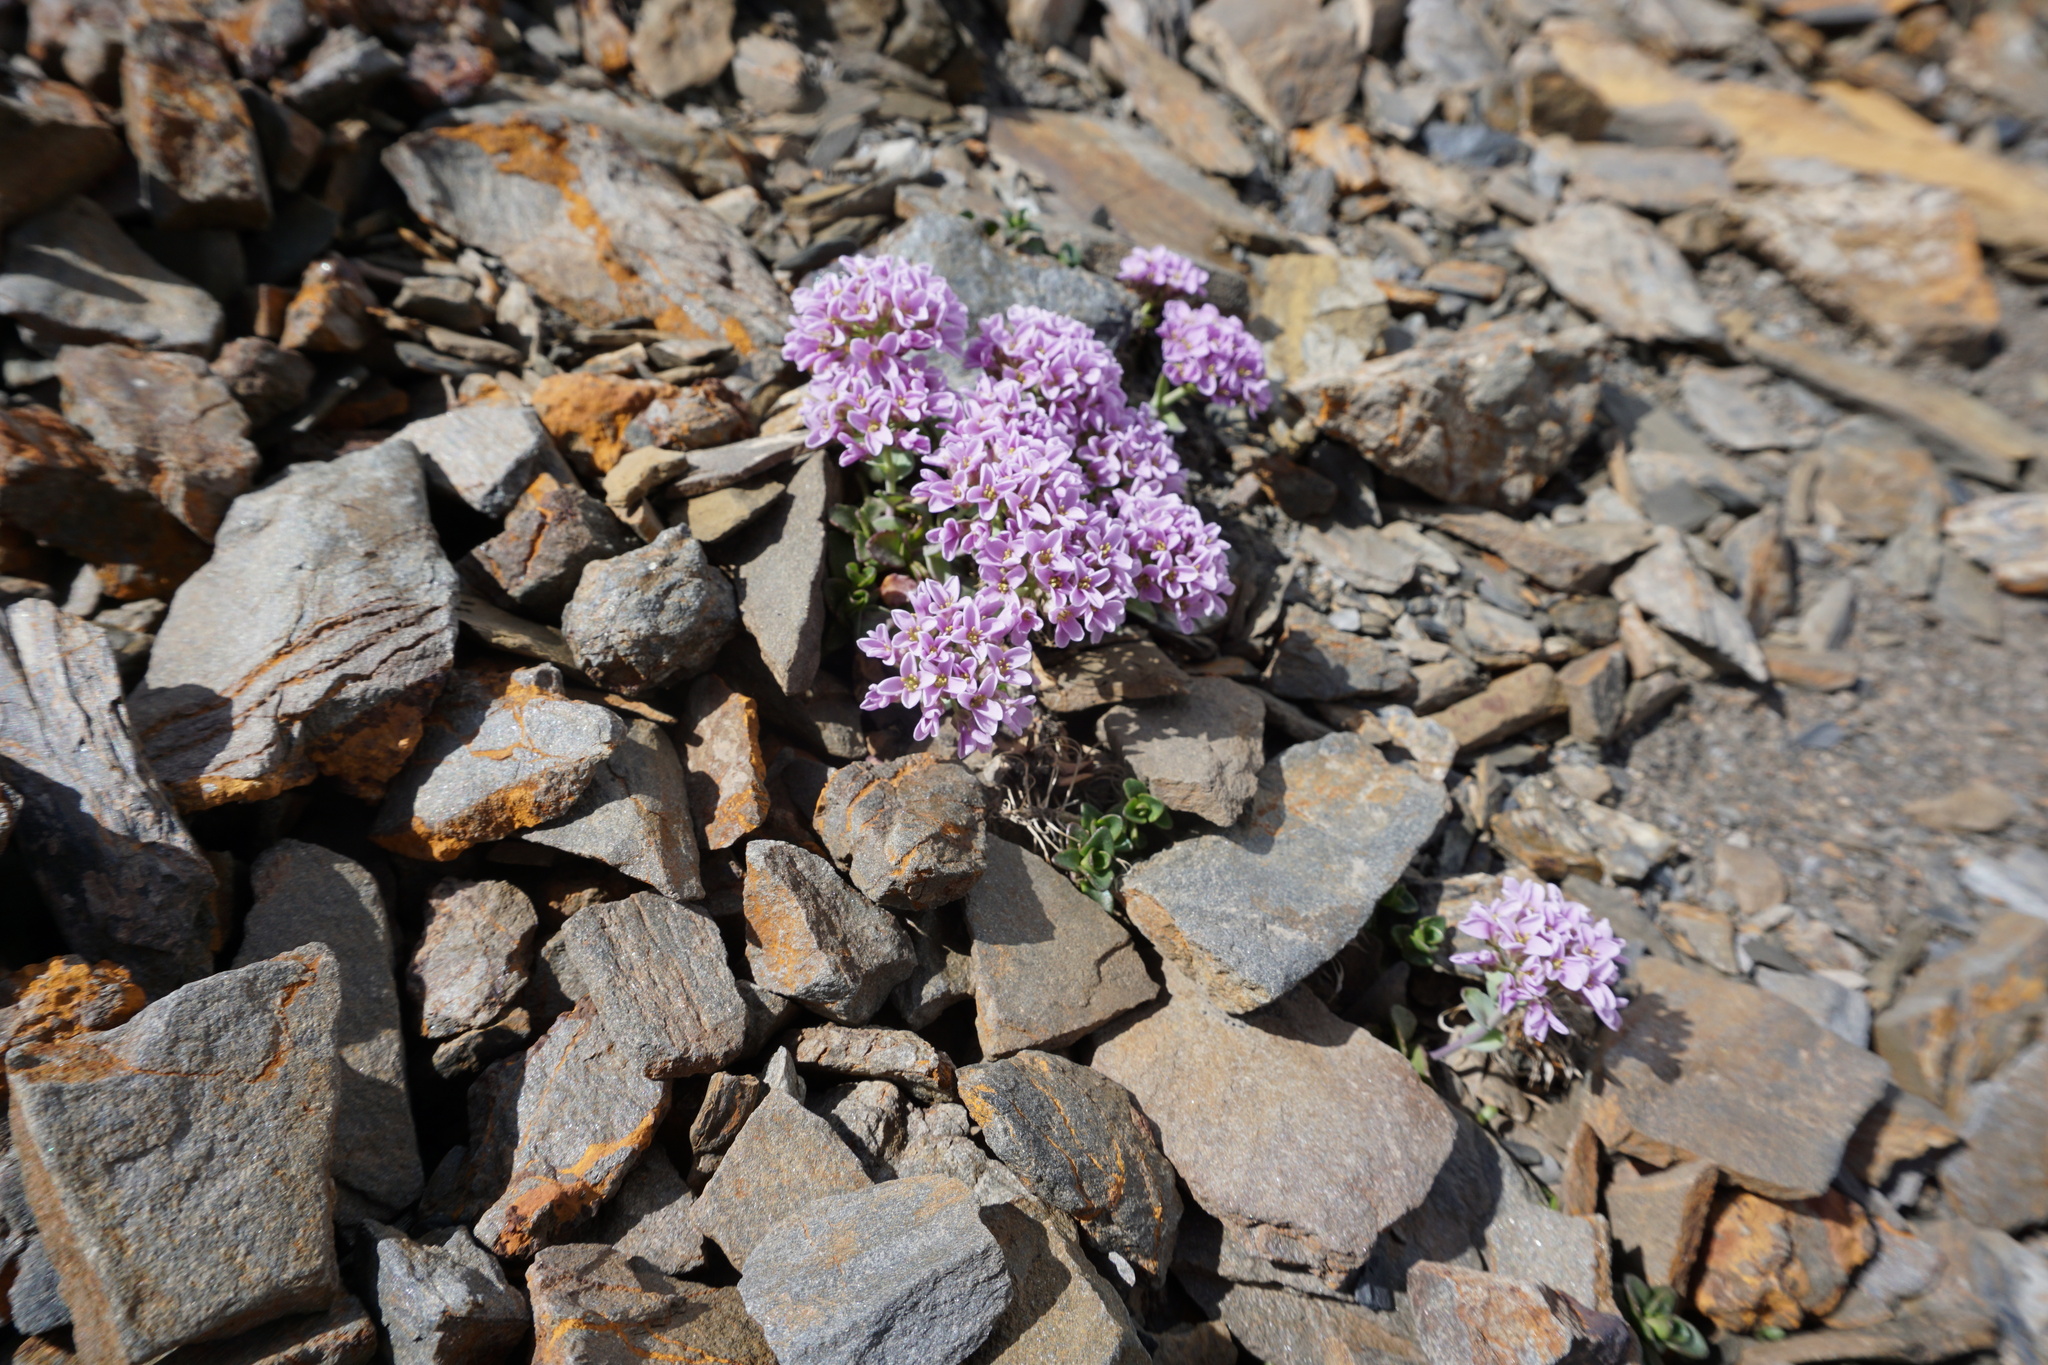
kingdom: Plantae
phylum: Tracheophyta
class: Magnoliopsida
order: Brassicales
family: Brassicaceae
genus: Noccaea
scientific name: Noccaea rotundifolia
